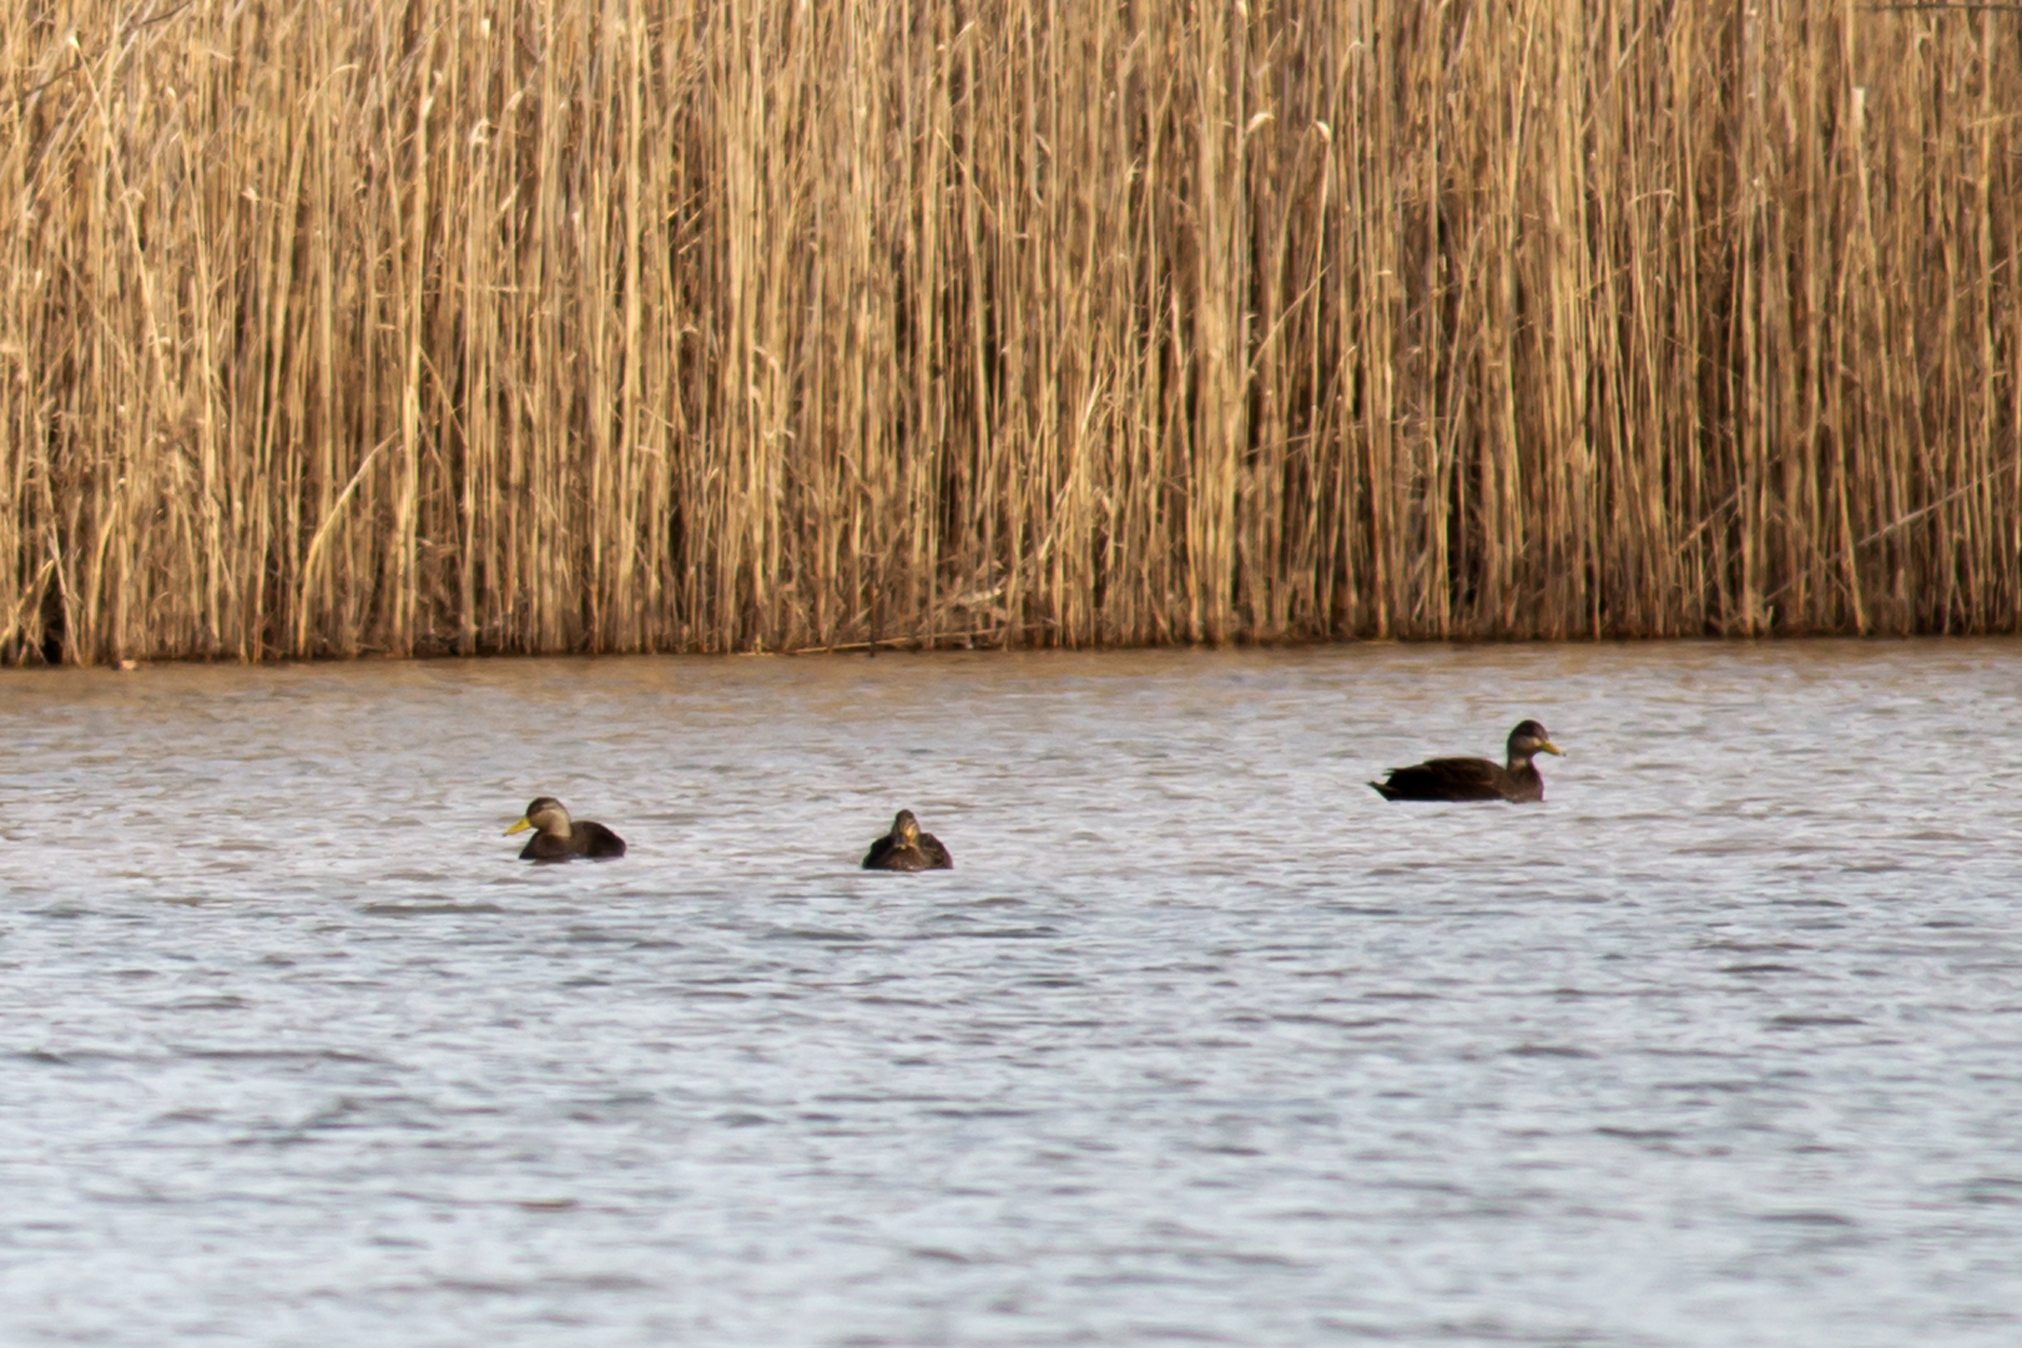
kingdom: Animalia
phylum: Chordata
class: Aves
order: Anseriformes
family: Anatidae
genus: Anas
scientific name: Anas rubripes
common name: American black duck
